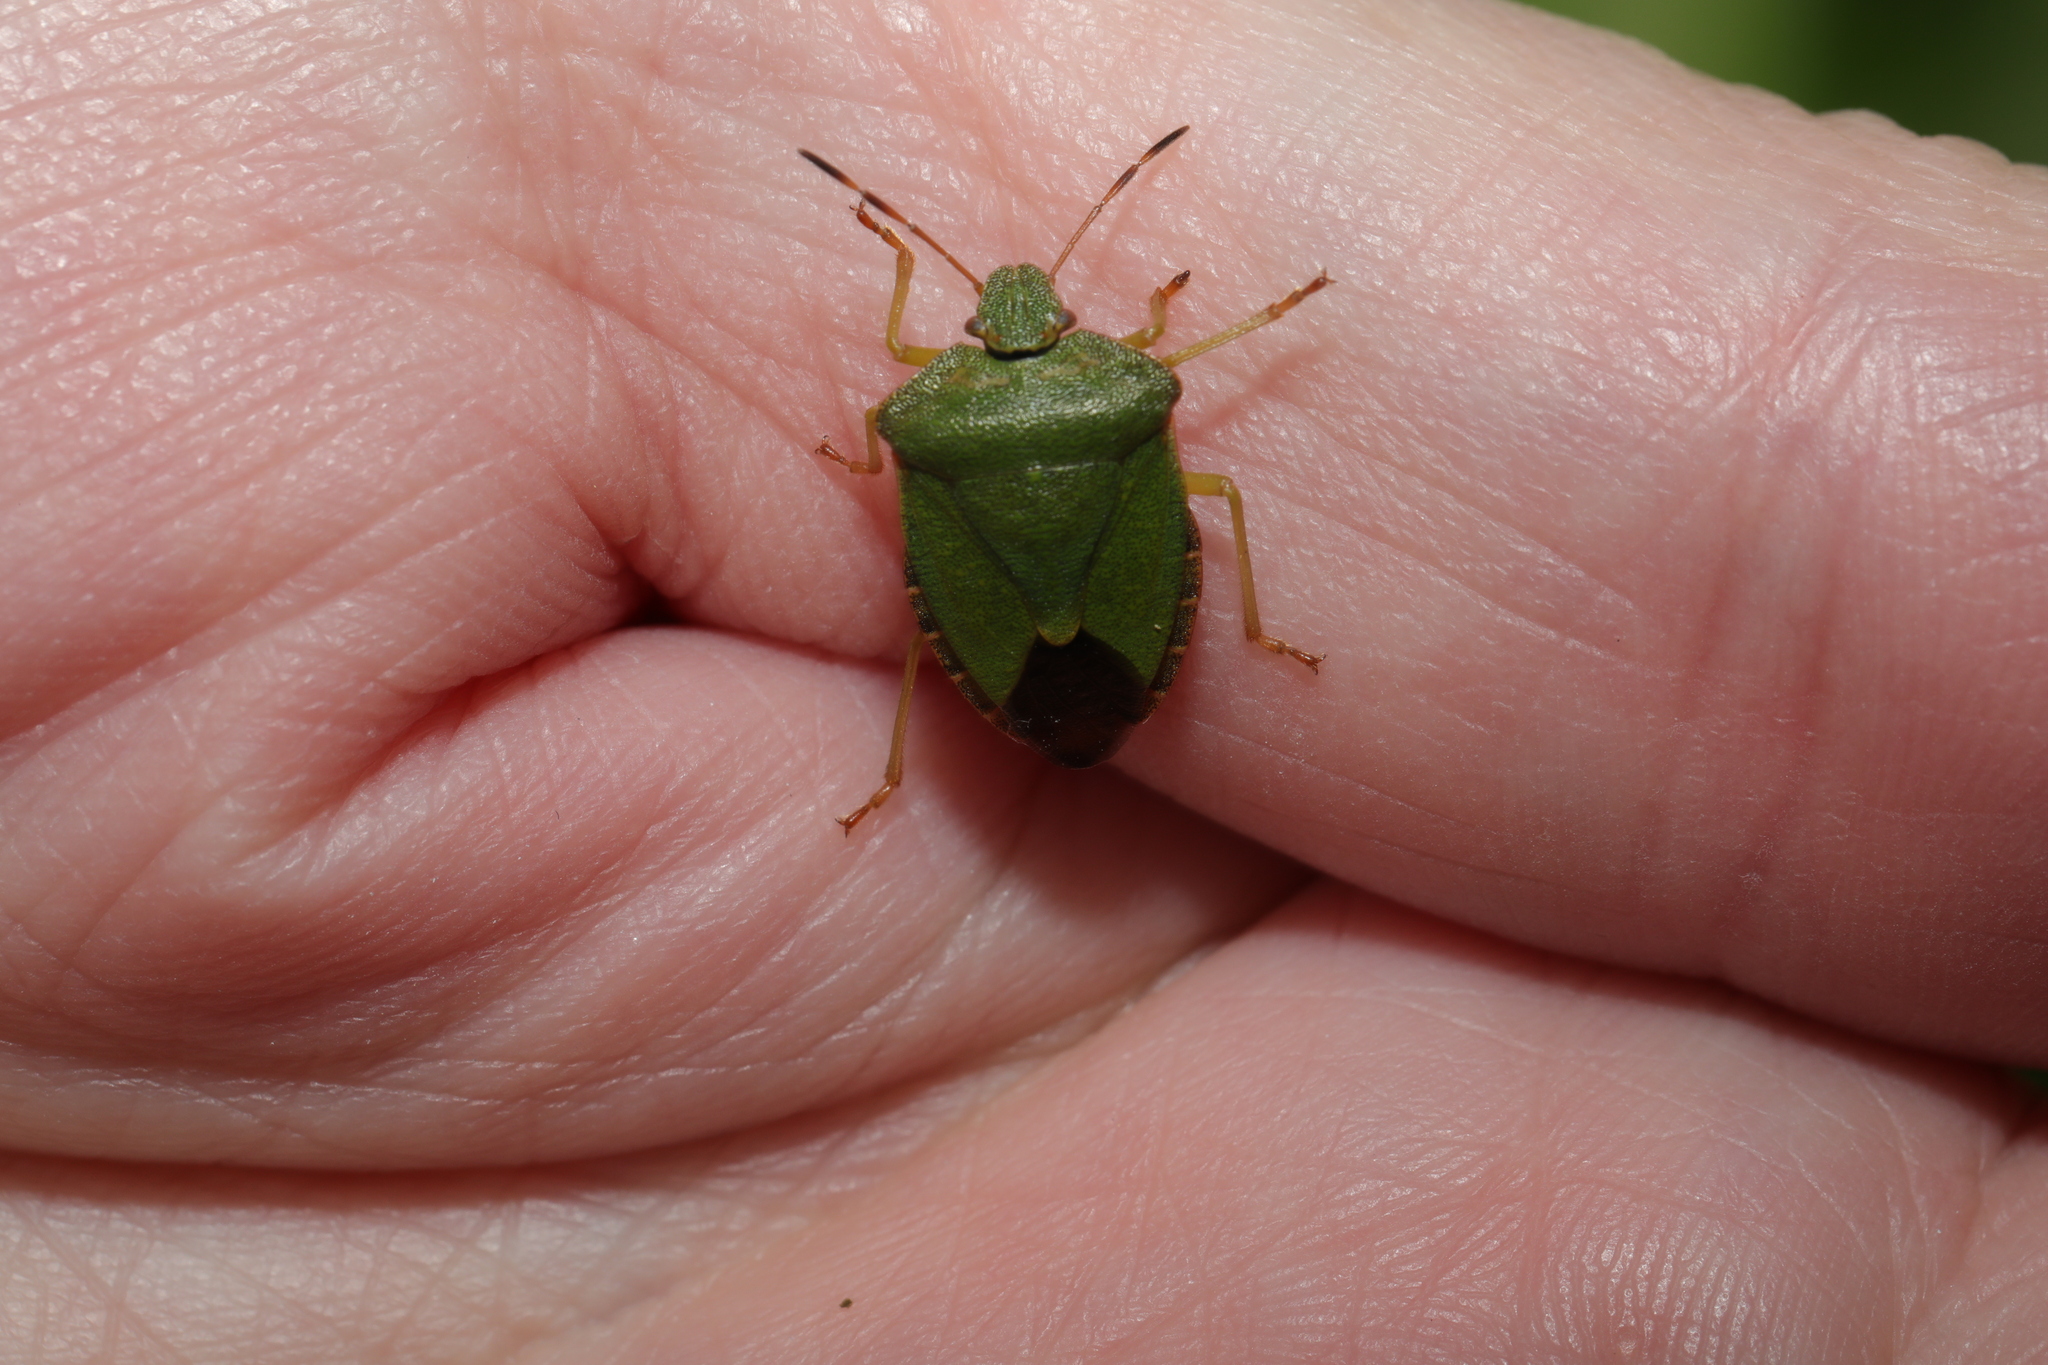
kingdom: Animalia
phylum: Arthropoda
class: Insecta
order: Hemiptera
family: Pentatomidae
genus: Palomena
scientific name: Palomena prasina
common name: Green shieldbug
